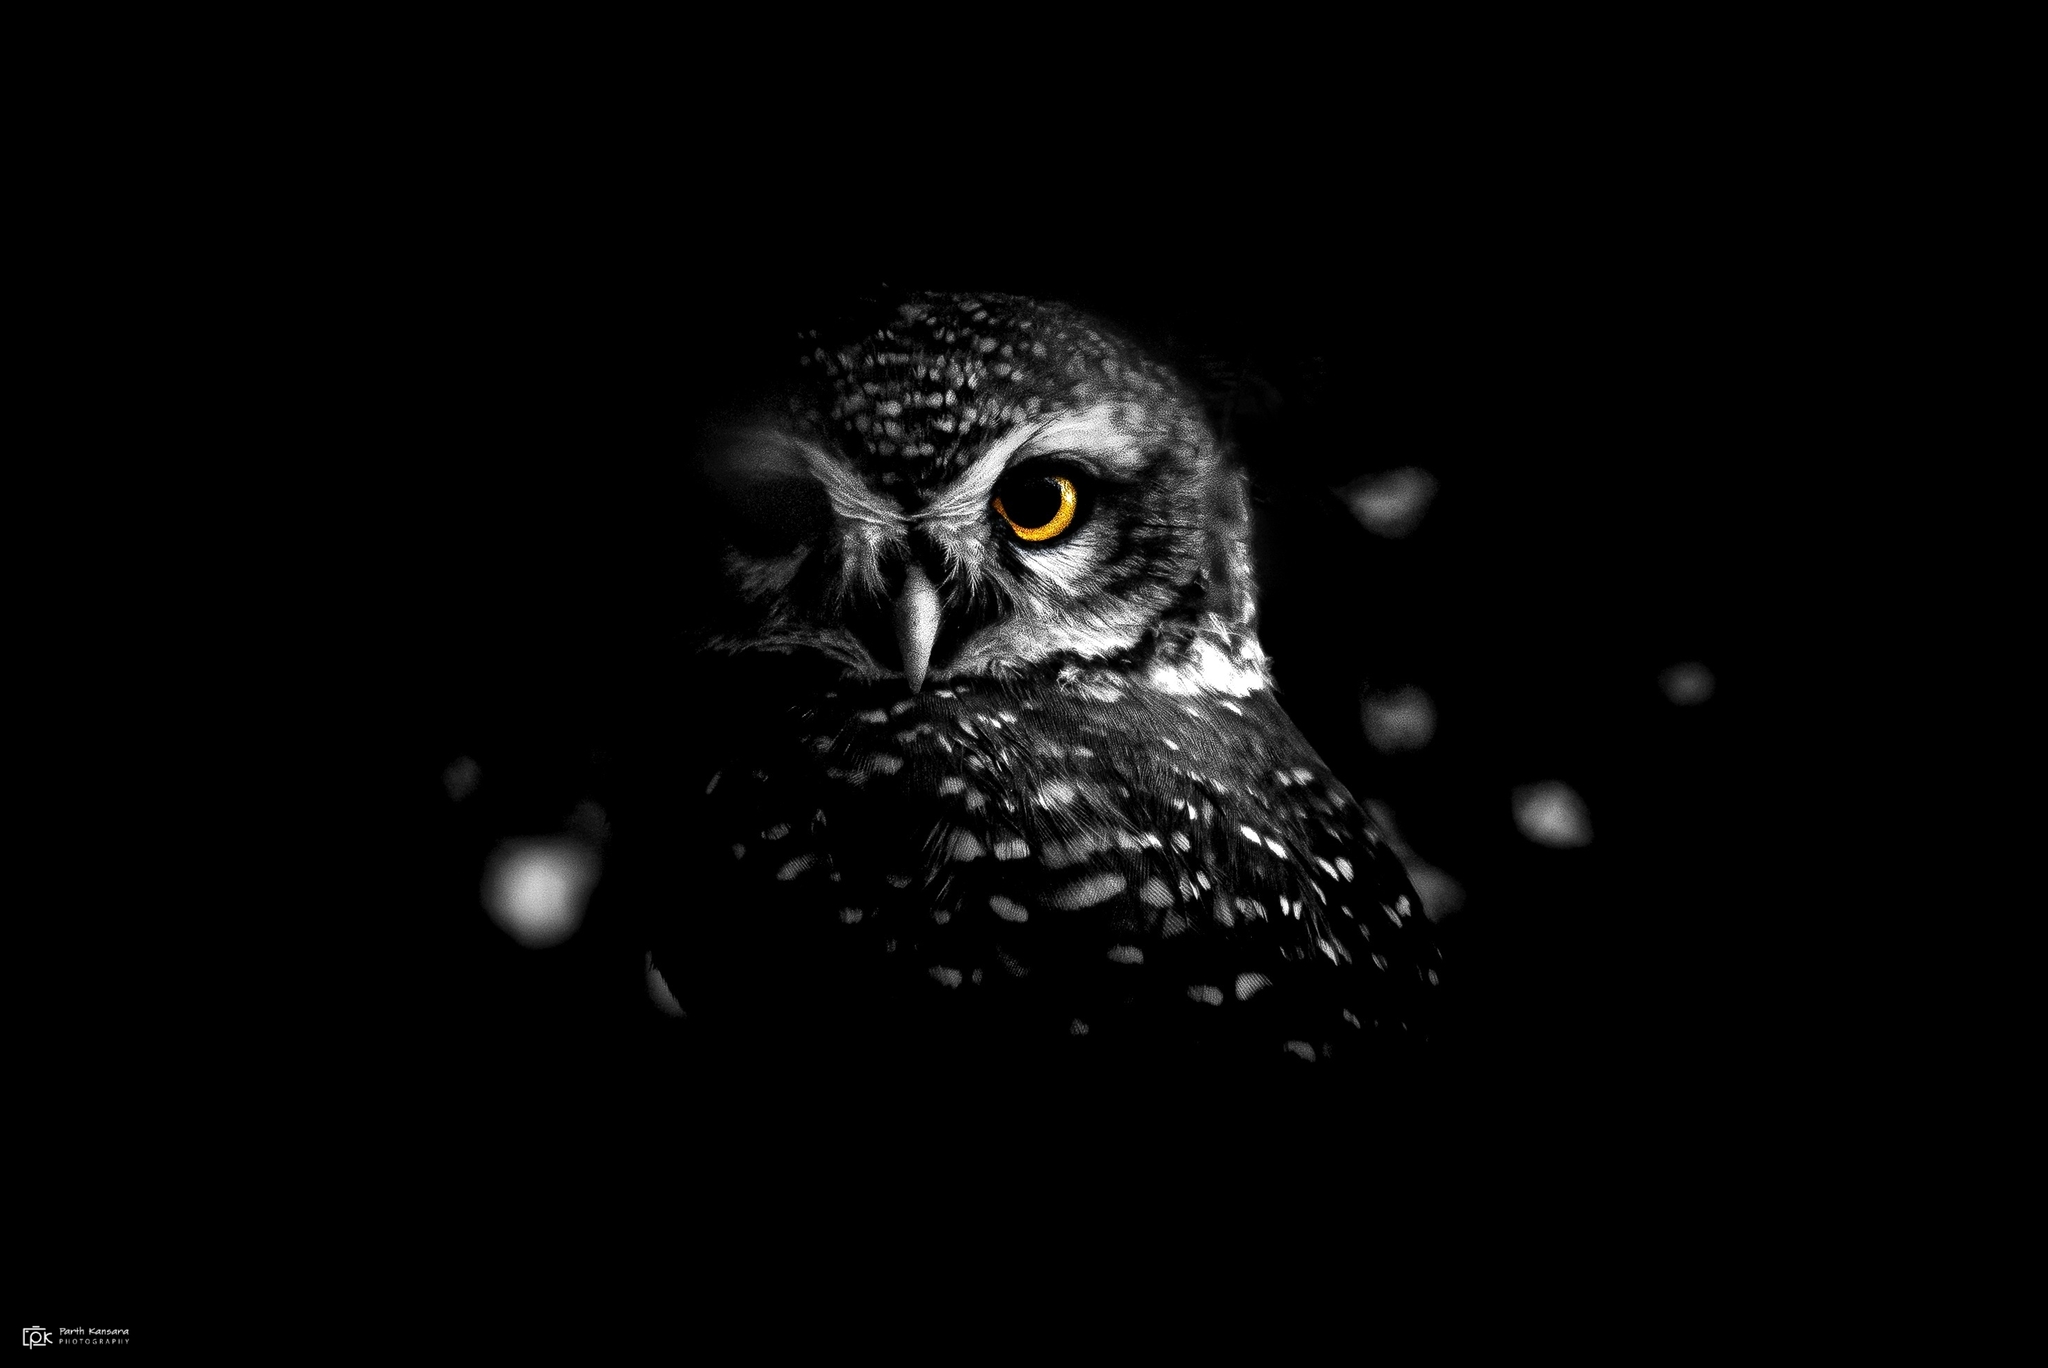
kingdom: Animalia
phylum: Chordata
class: Aves
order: Strigiformes
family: Strigidae
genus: Athene
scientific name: Athene brama
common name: Spotted owlet
